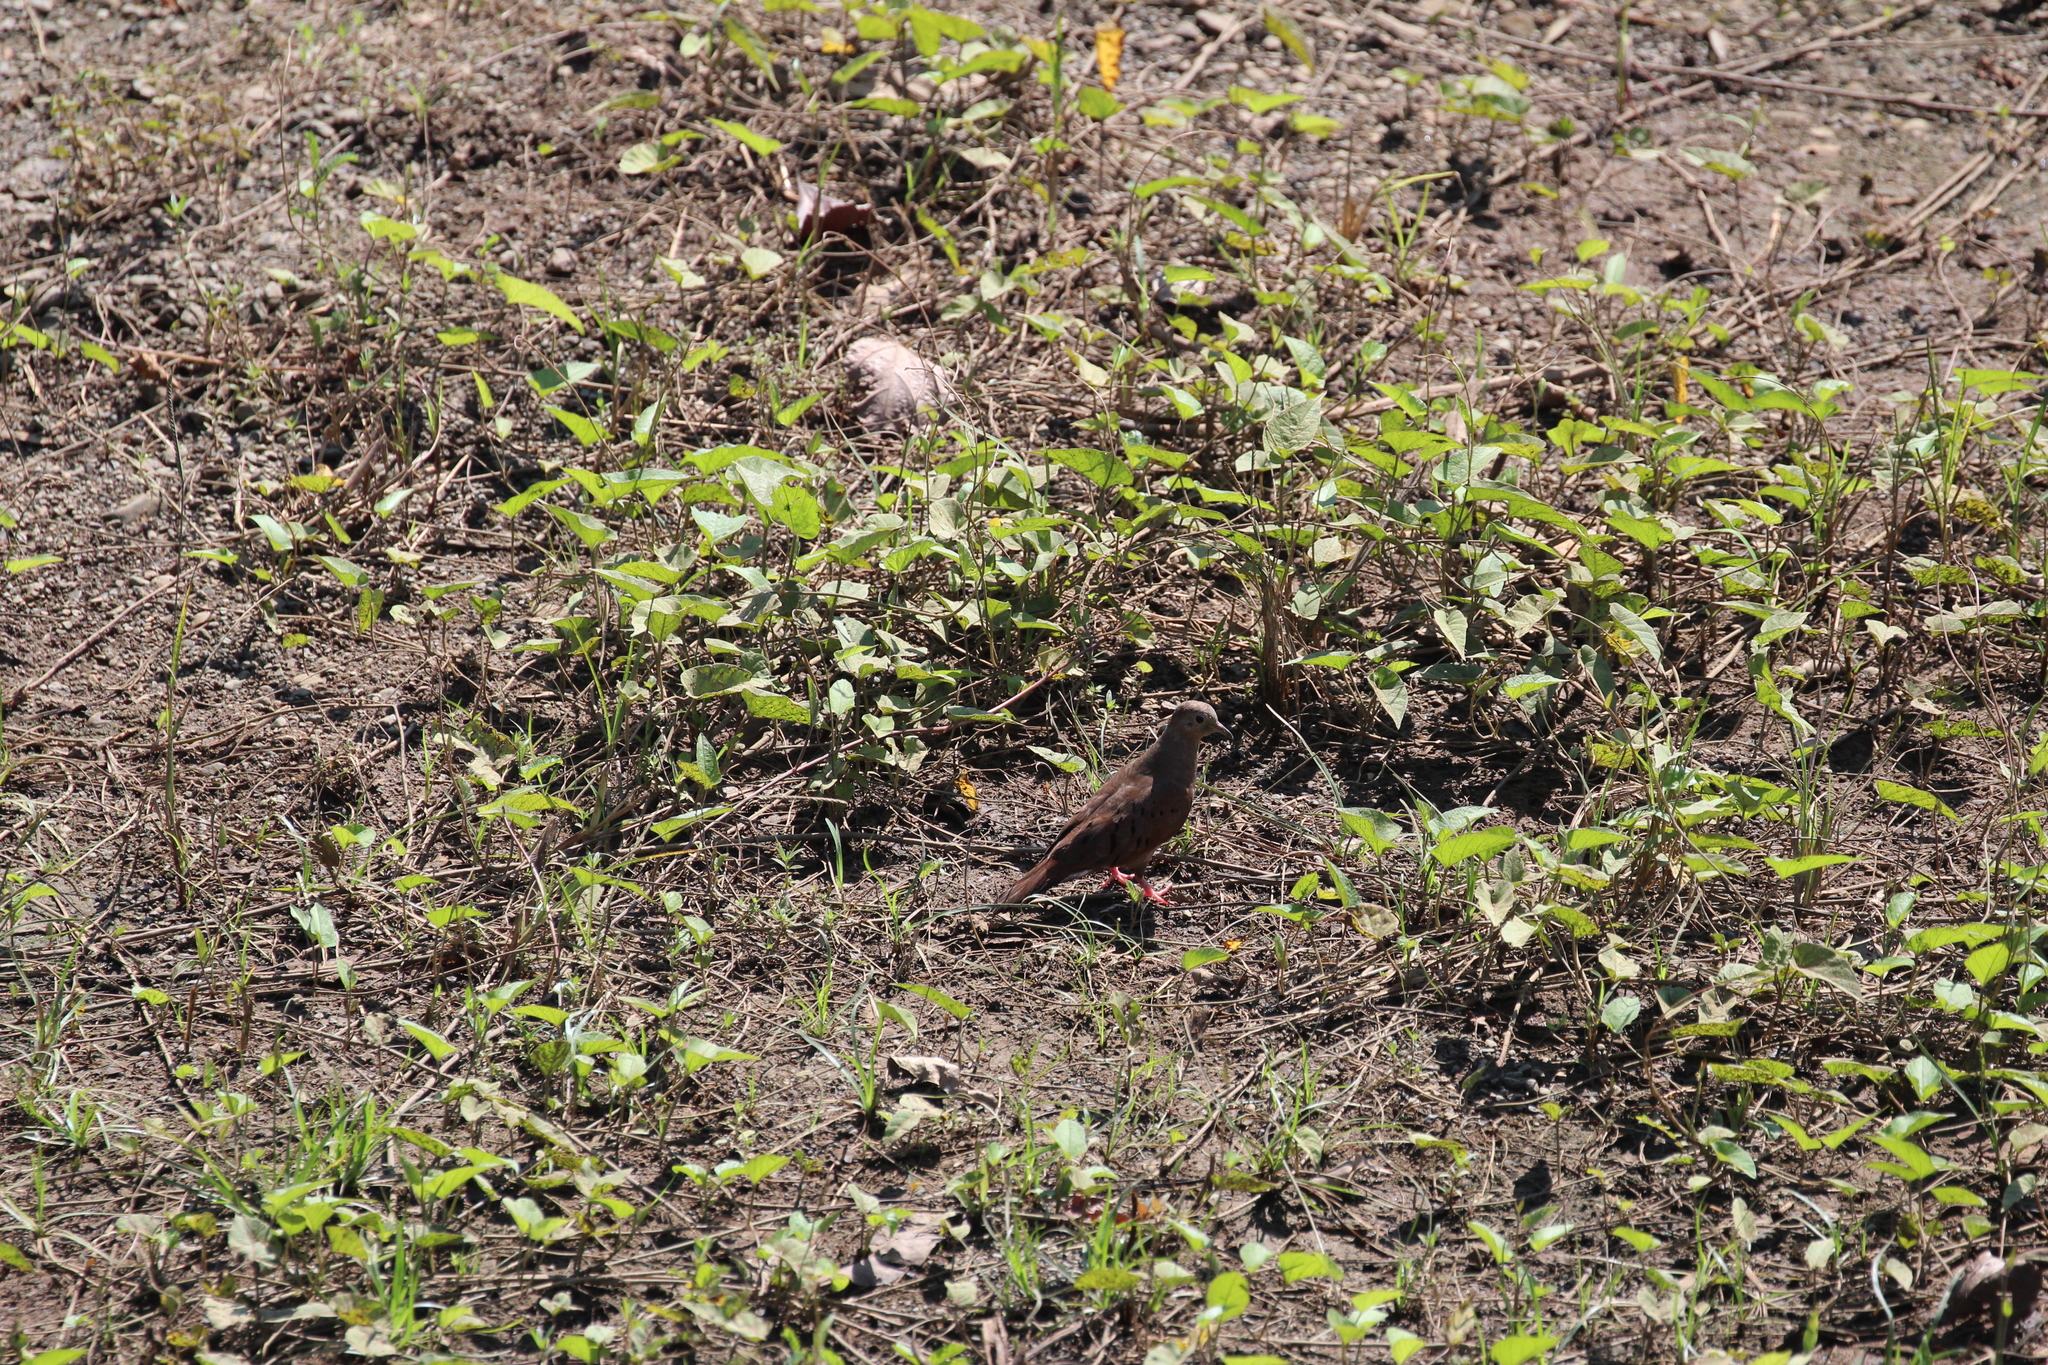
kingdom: Animalia
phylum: Chordata
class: Aves
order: Columbiformes
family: Columbidae
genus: Columbina
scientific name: Columbina talpacoti
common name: Ruddy ground dove
